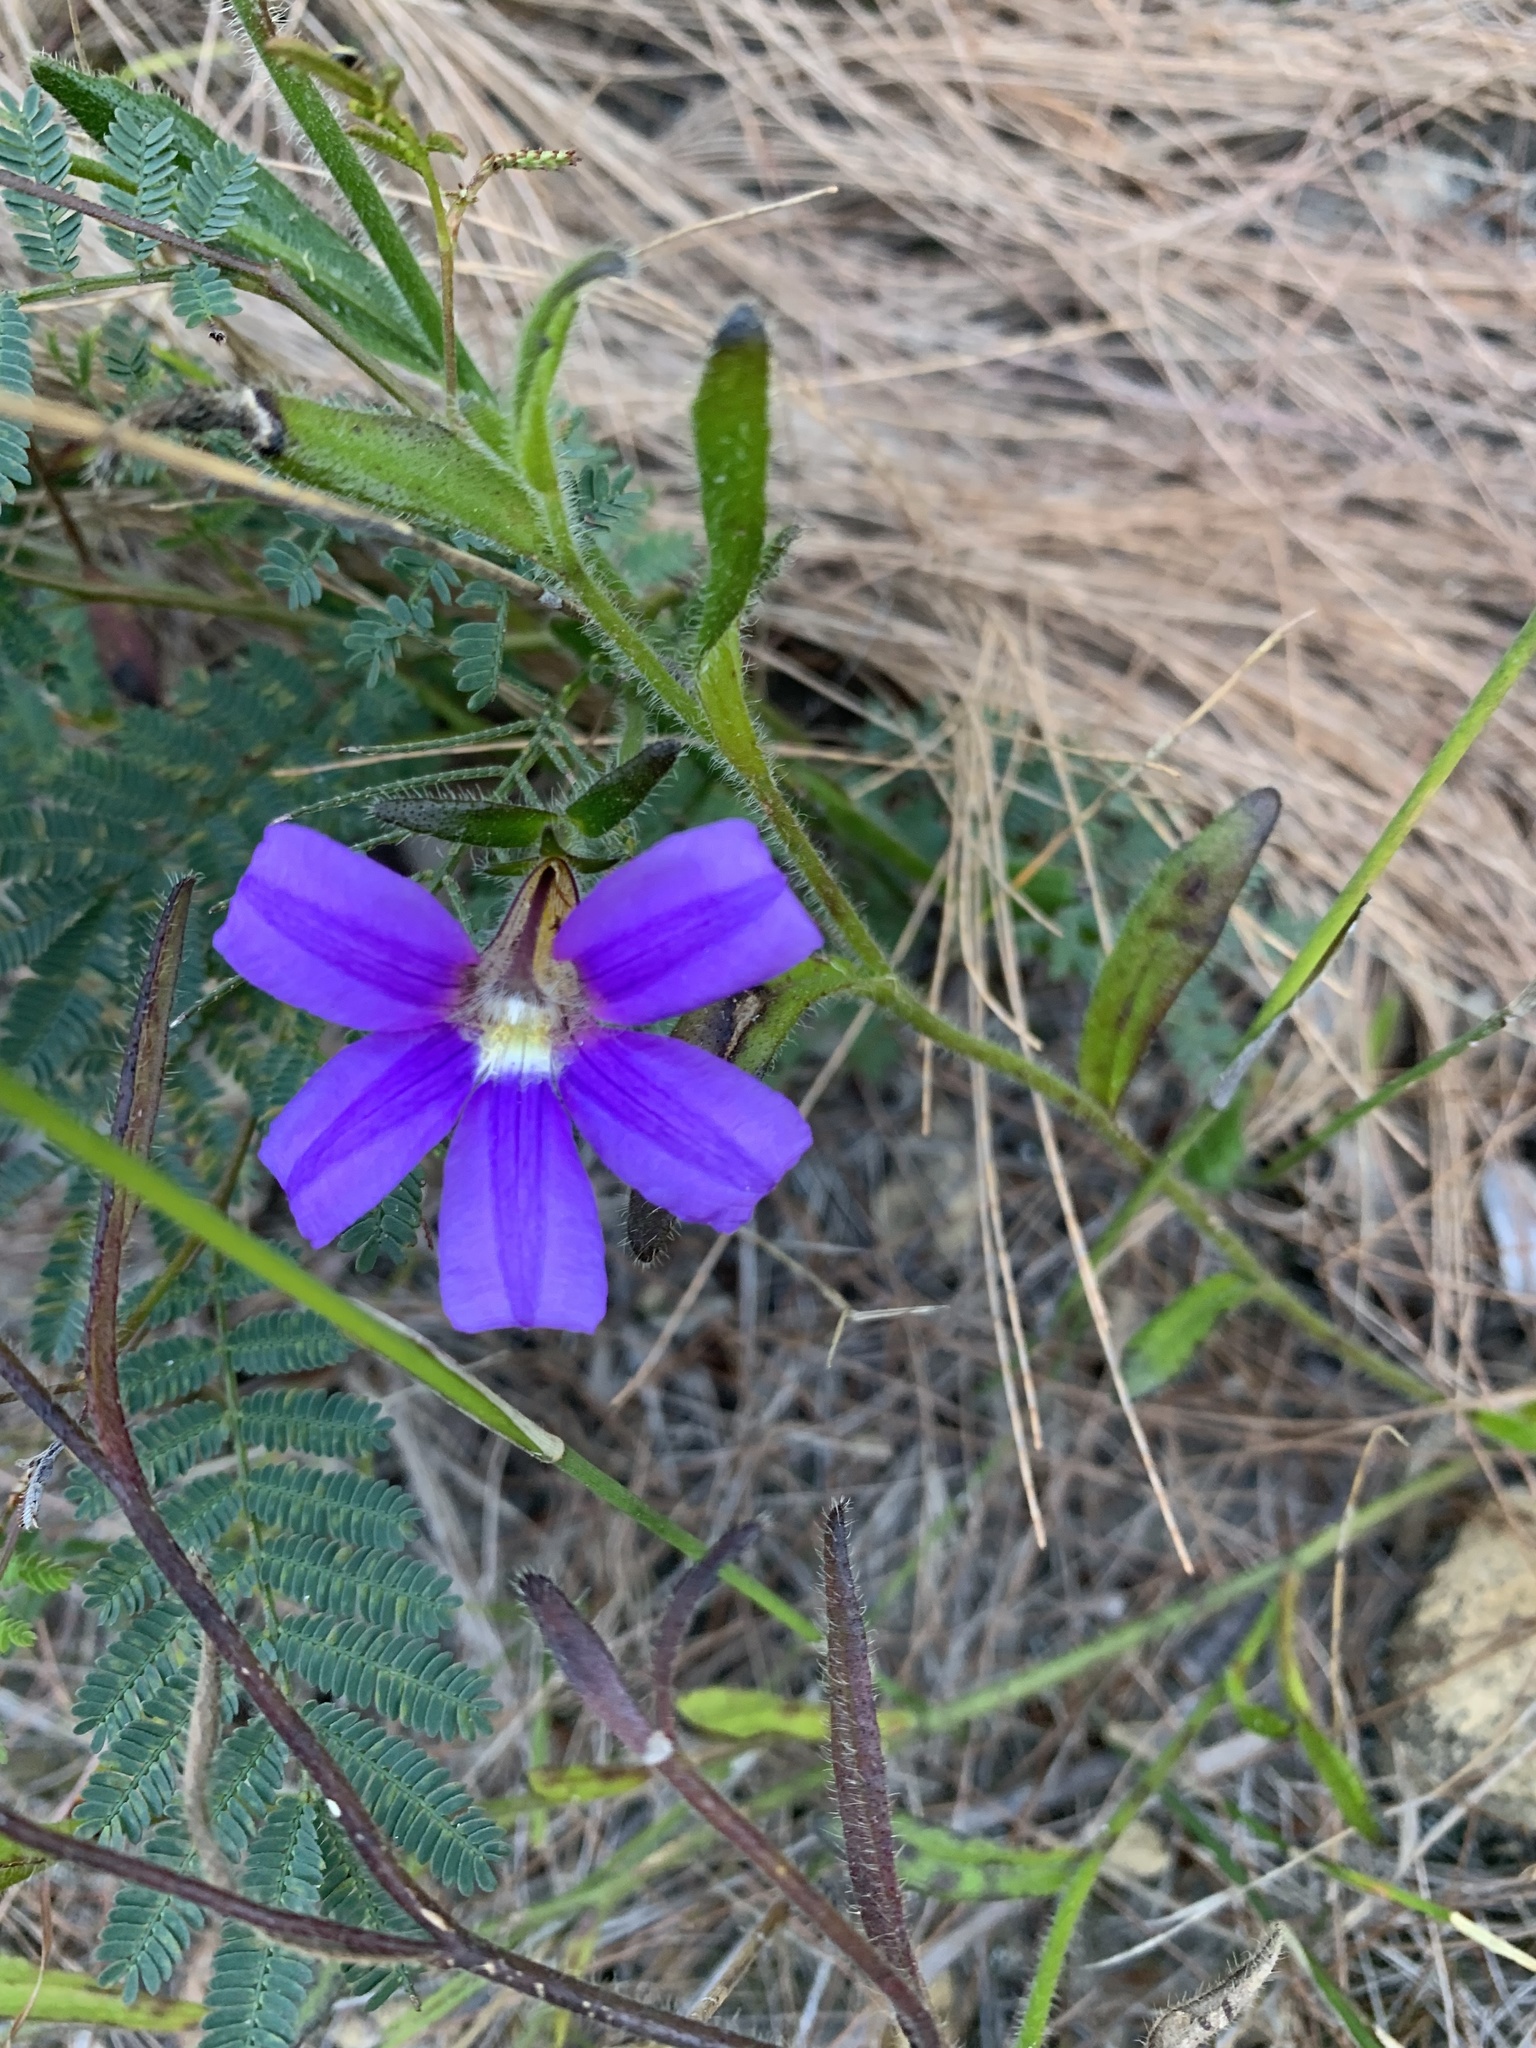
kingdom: Plantae
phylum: Tracheophyta
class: Magnoliopsida
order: Asterales
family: Goodeniaceae
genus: Scaevola
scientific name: Scaevola ramosissima
